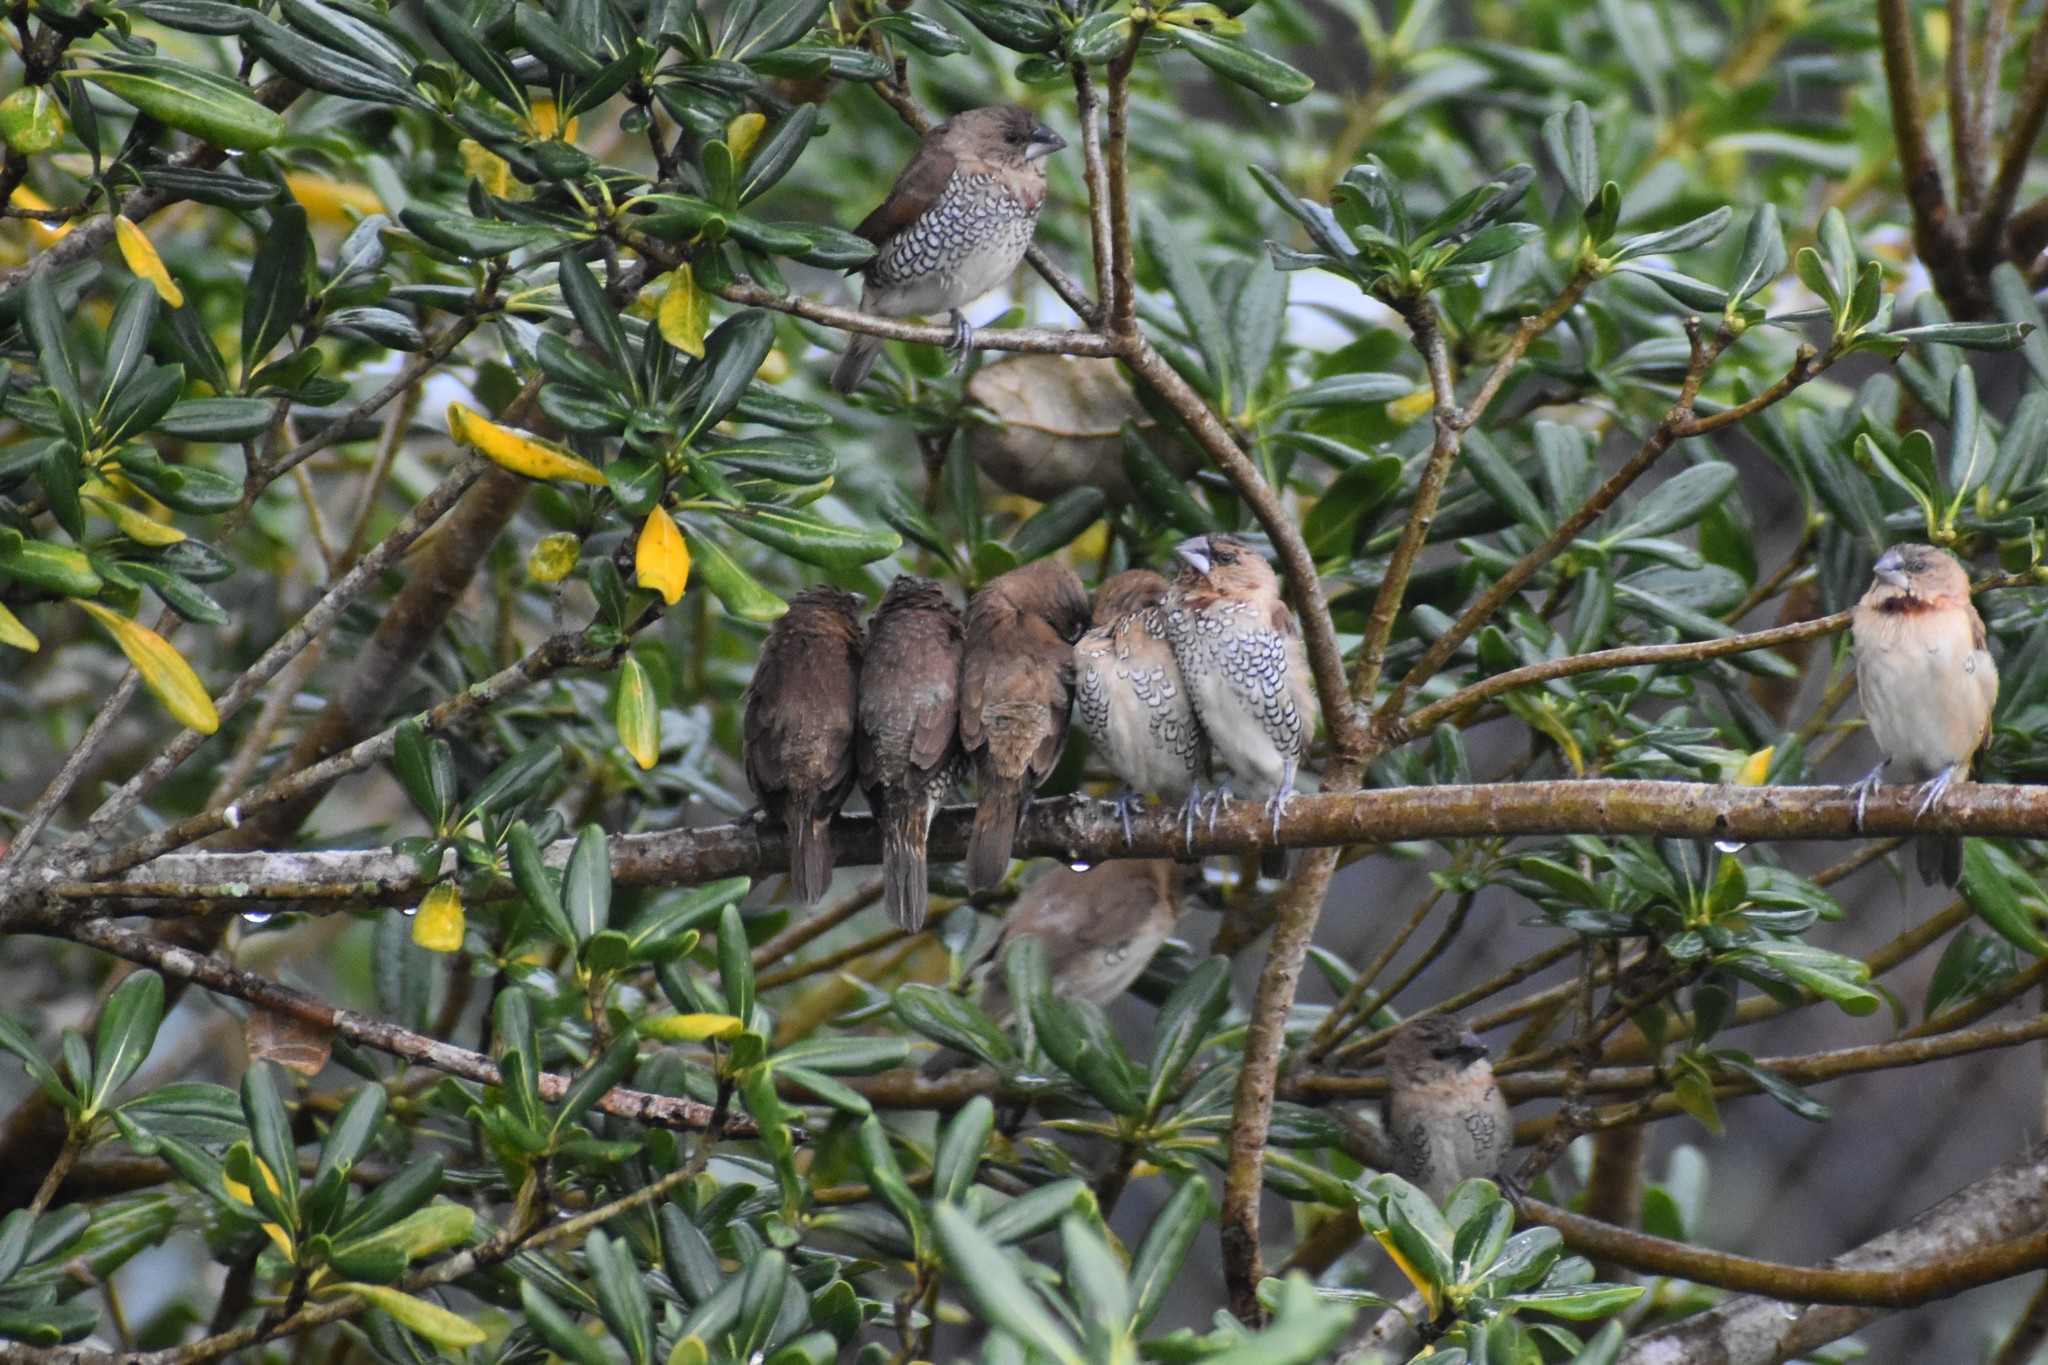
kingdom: Animalia
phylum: Chordata
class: Aves
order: Passeriformes
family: Estrildidae
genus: Lonchura
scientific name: Lonchura punctulata
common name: Scaly-breasted munia
